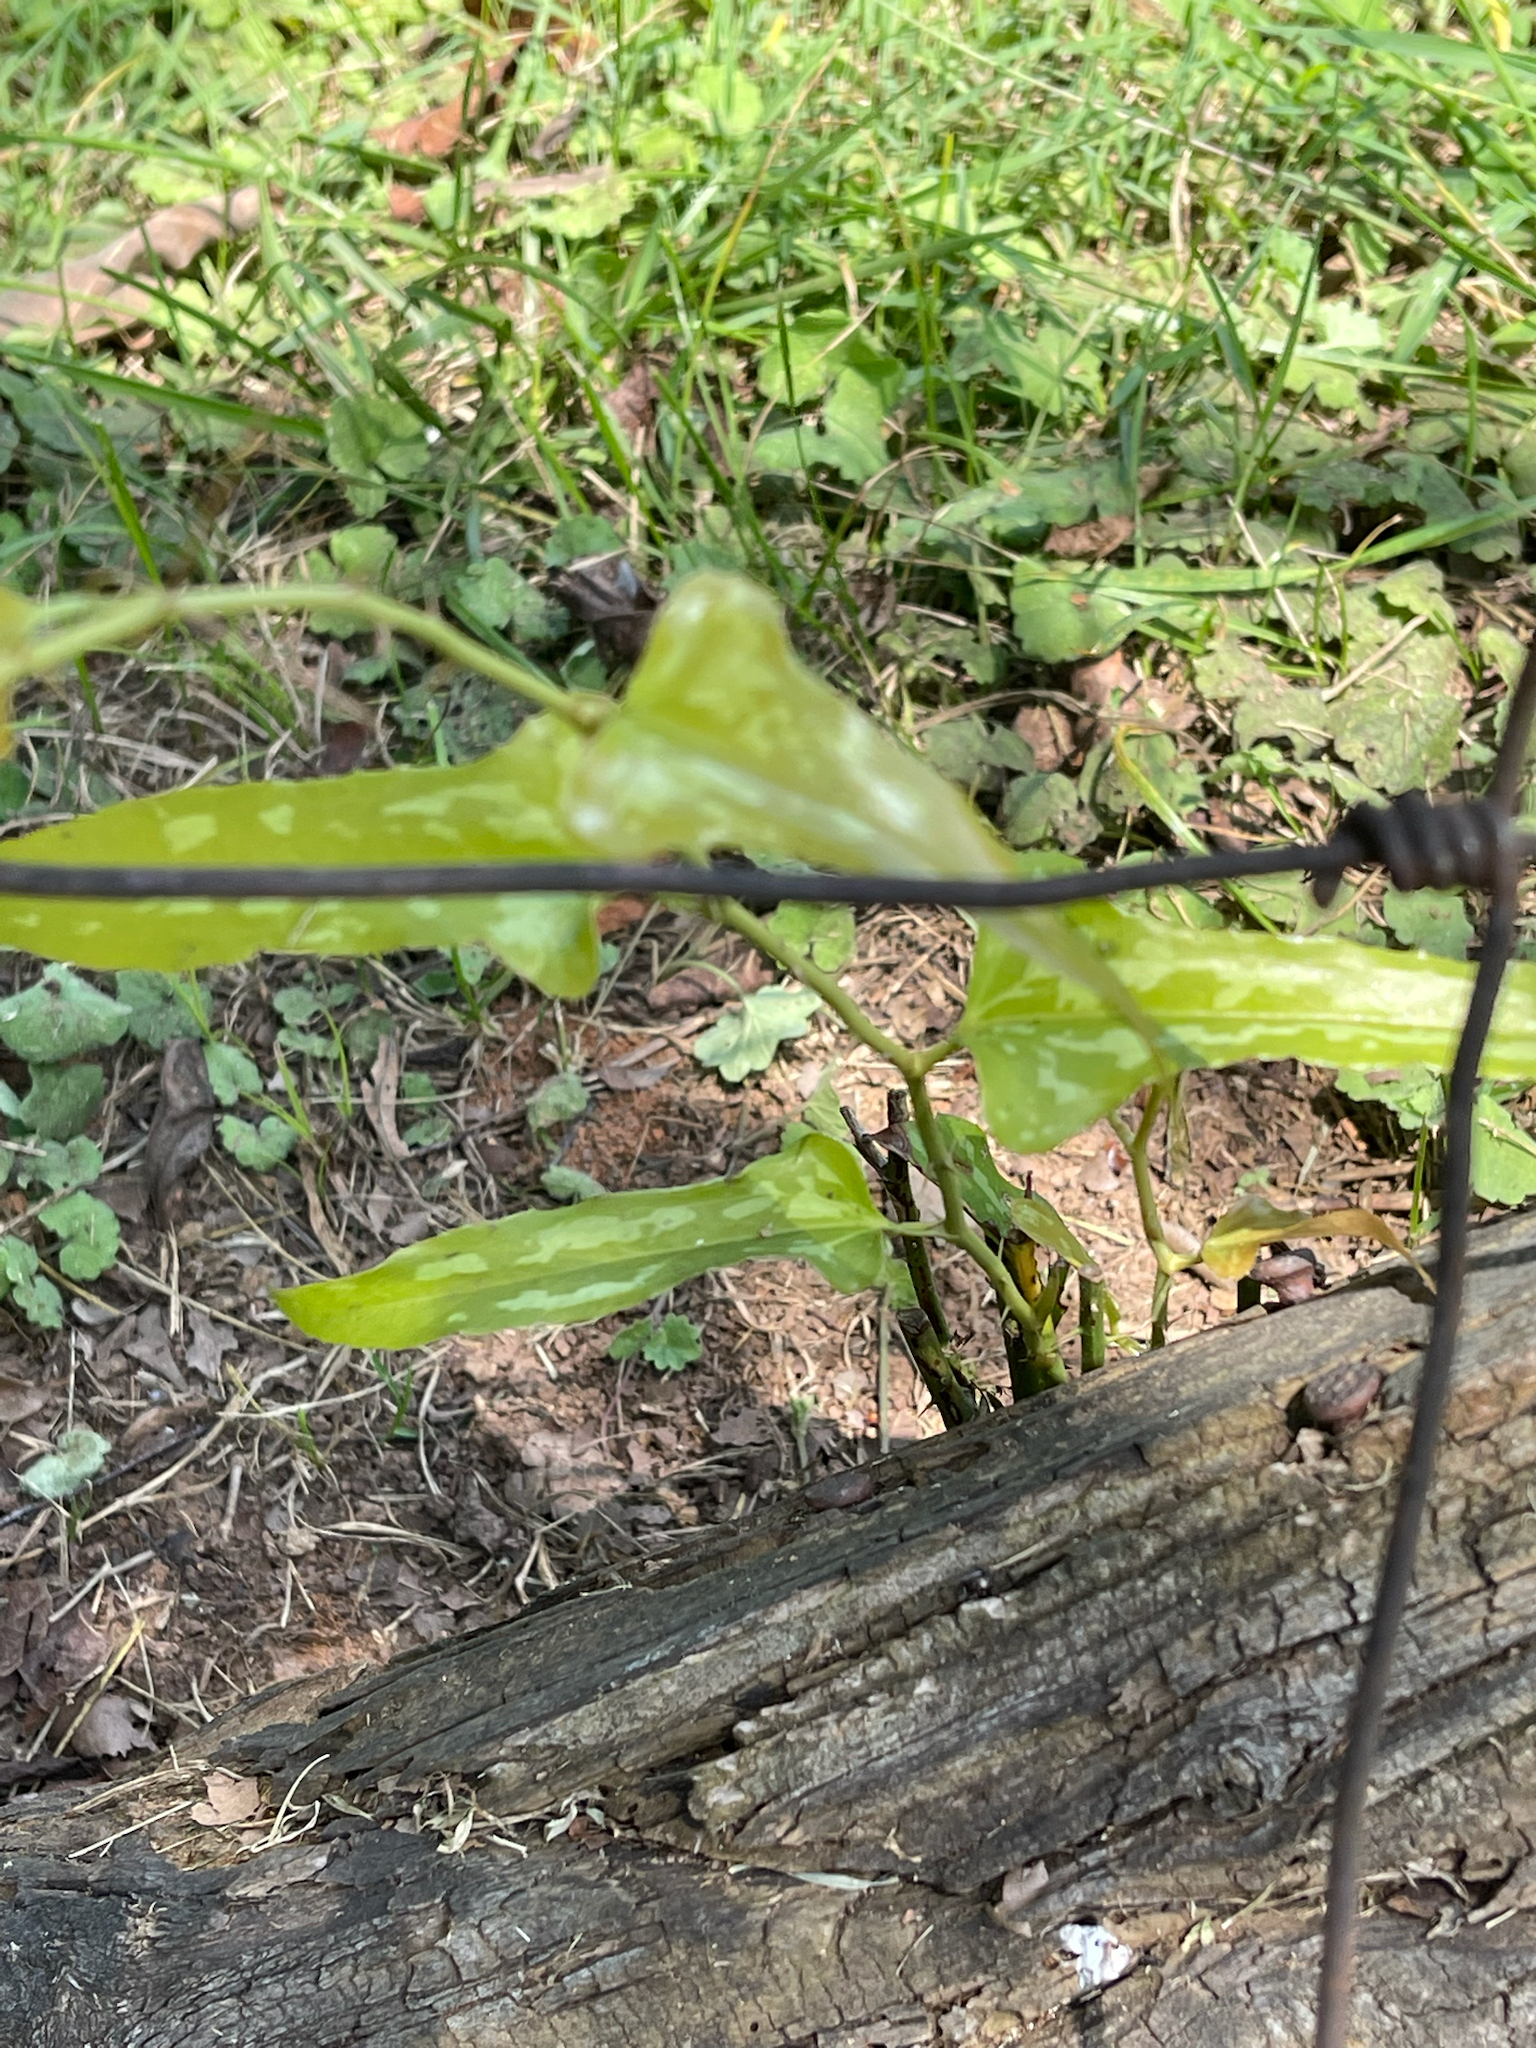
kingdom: Plantae
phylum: Tracheophyta
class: Liliopsida
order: Liliales
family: Smilacaceae
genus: Smilax
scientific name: Smilax bona-nox
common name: Catbrier
